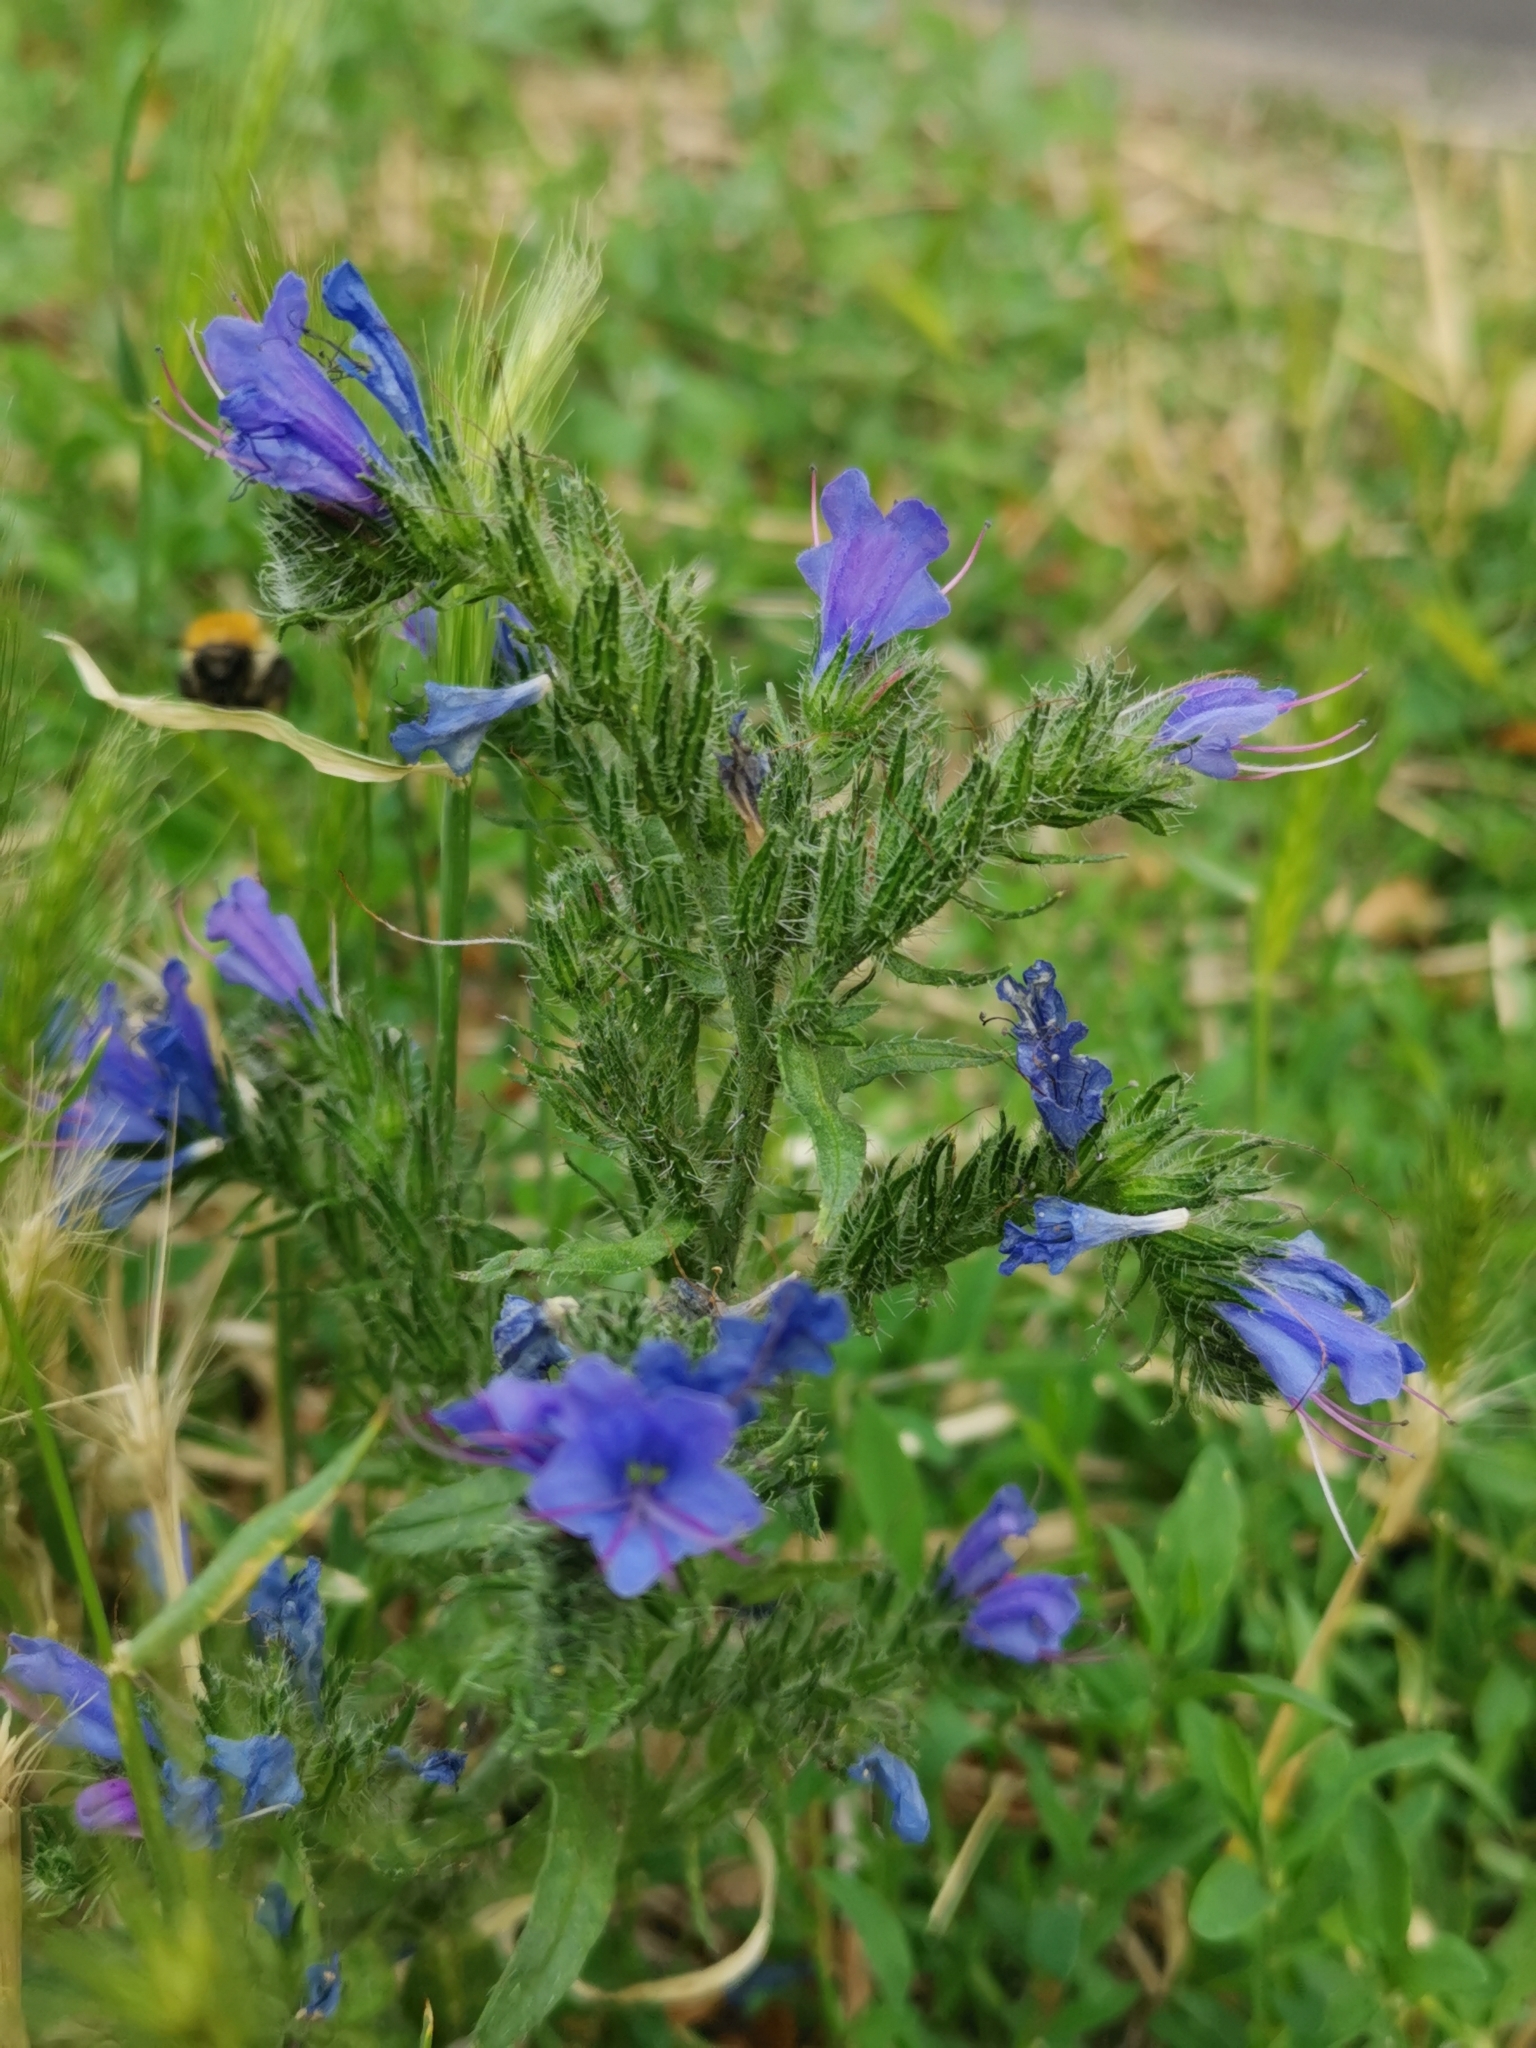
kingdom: Plantae
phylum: Tracheophyta
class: Magnoliopsida
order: Boraginales
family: Boraginaceae
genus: Echium
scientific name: Echium vulgare
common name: Common viper's bugloss
